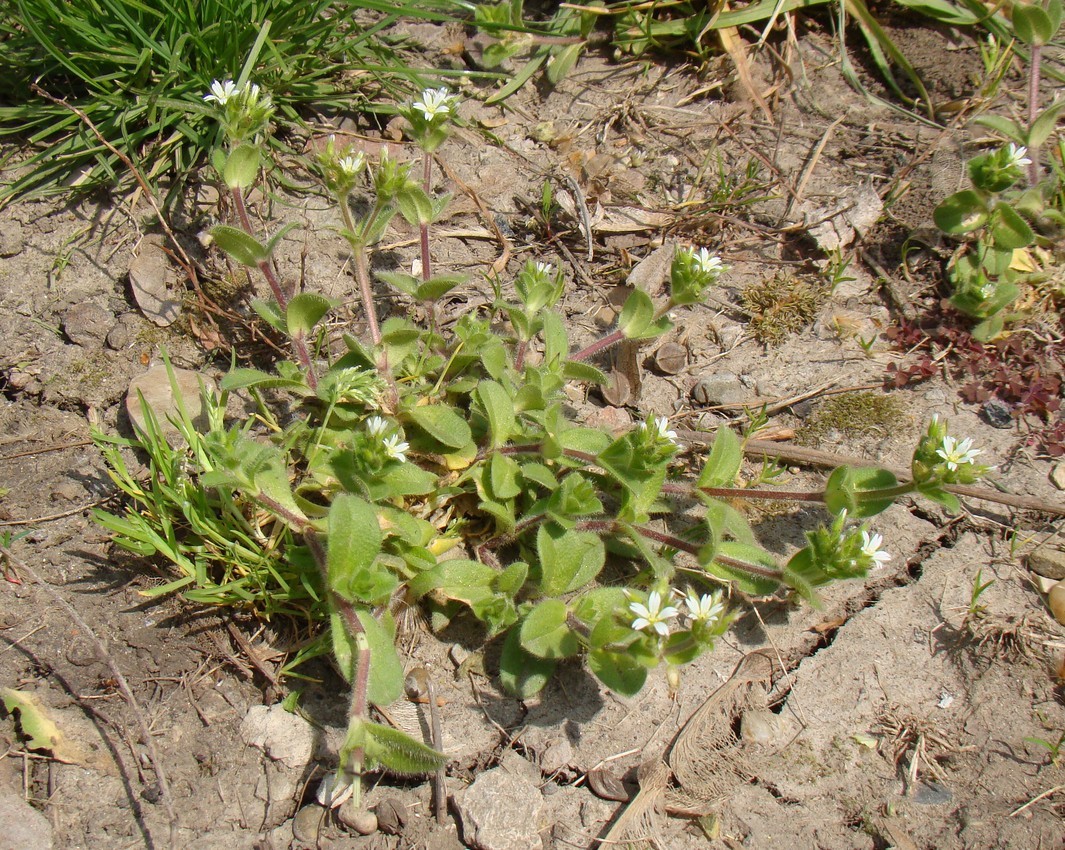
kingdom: Plantae
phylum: Tracheophyta
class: Magnoliopsida
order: Caryophyllales
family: Caryophyllaceae
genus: Cerastium
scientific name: Cerastium glomeratum
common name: Sticky chickweed
